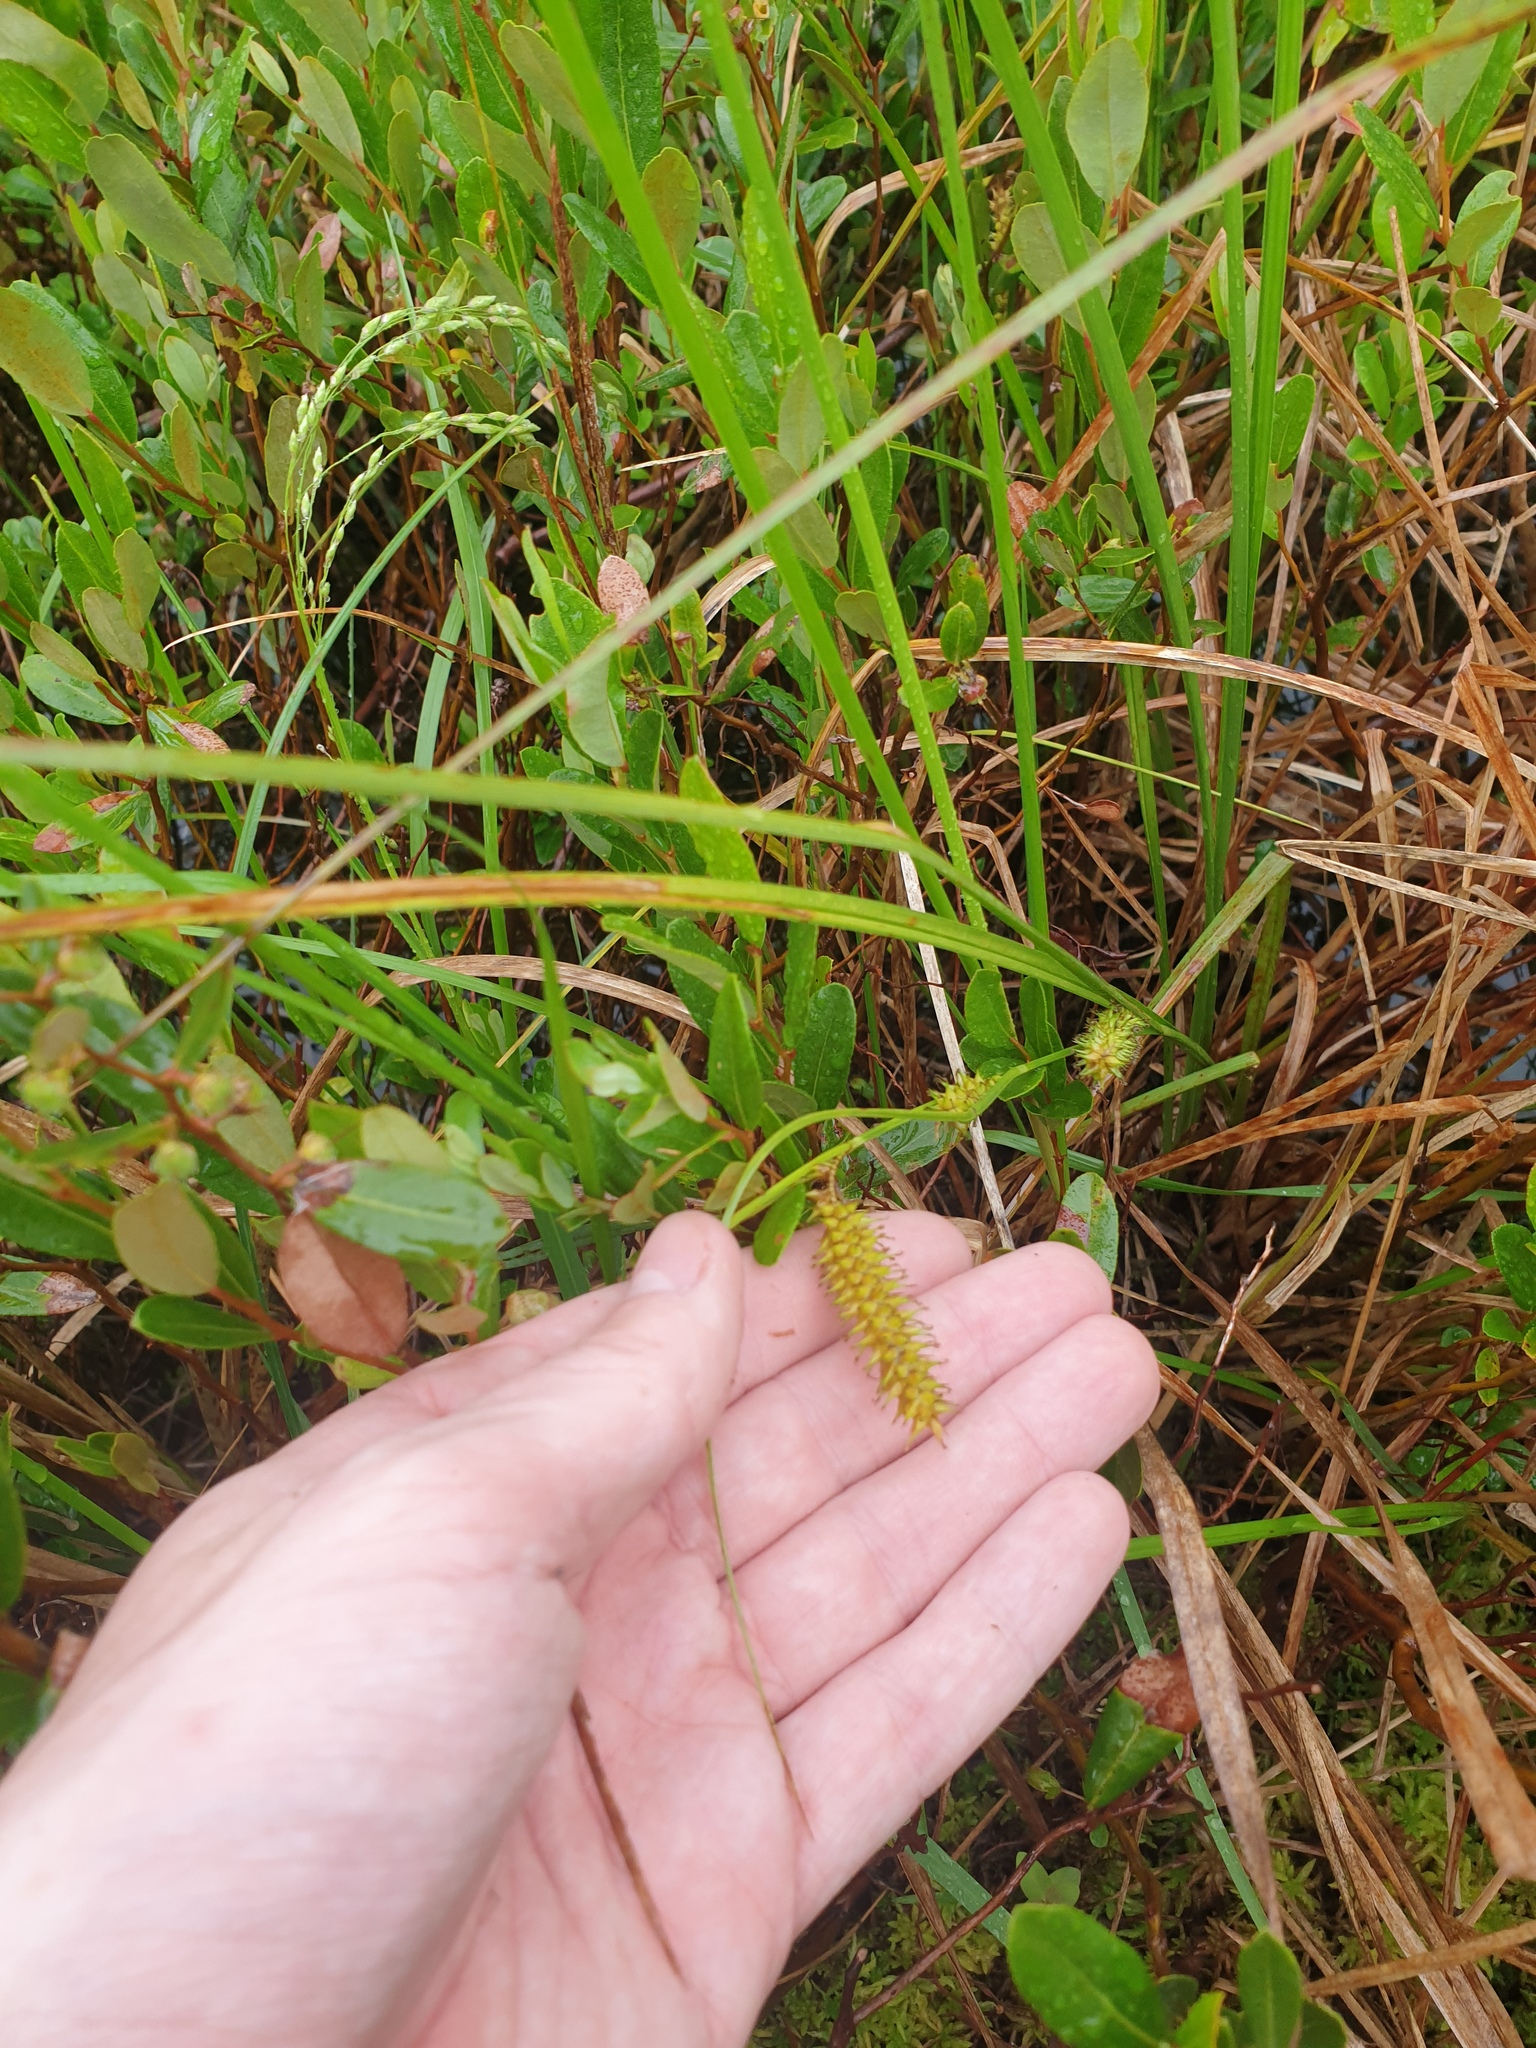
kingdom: Plantae
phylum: Tracheophyta
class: Liliopsida
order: Poales
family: Cyperaceae
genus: Carex
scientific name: Carex utriculata
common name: Beaked sedge
